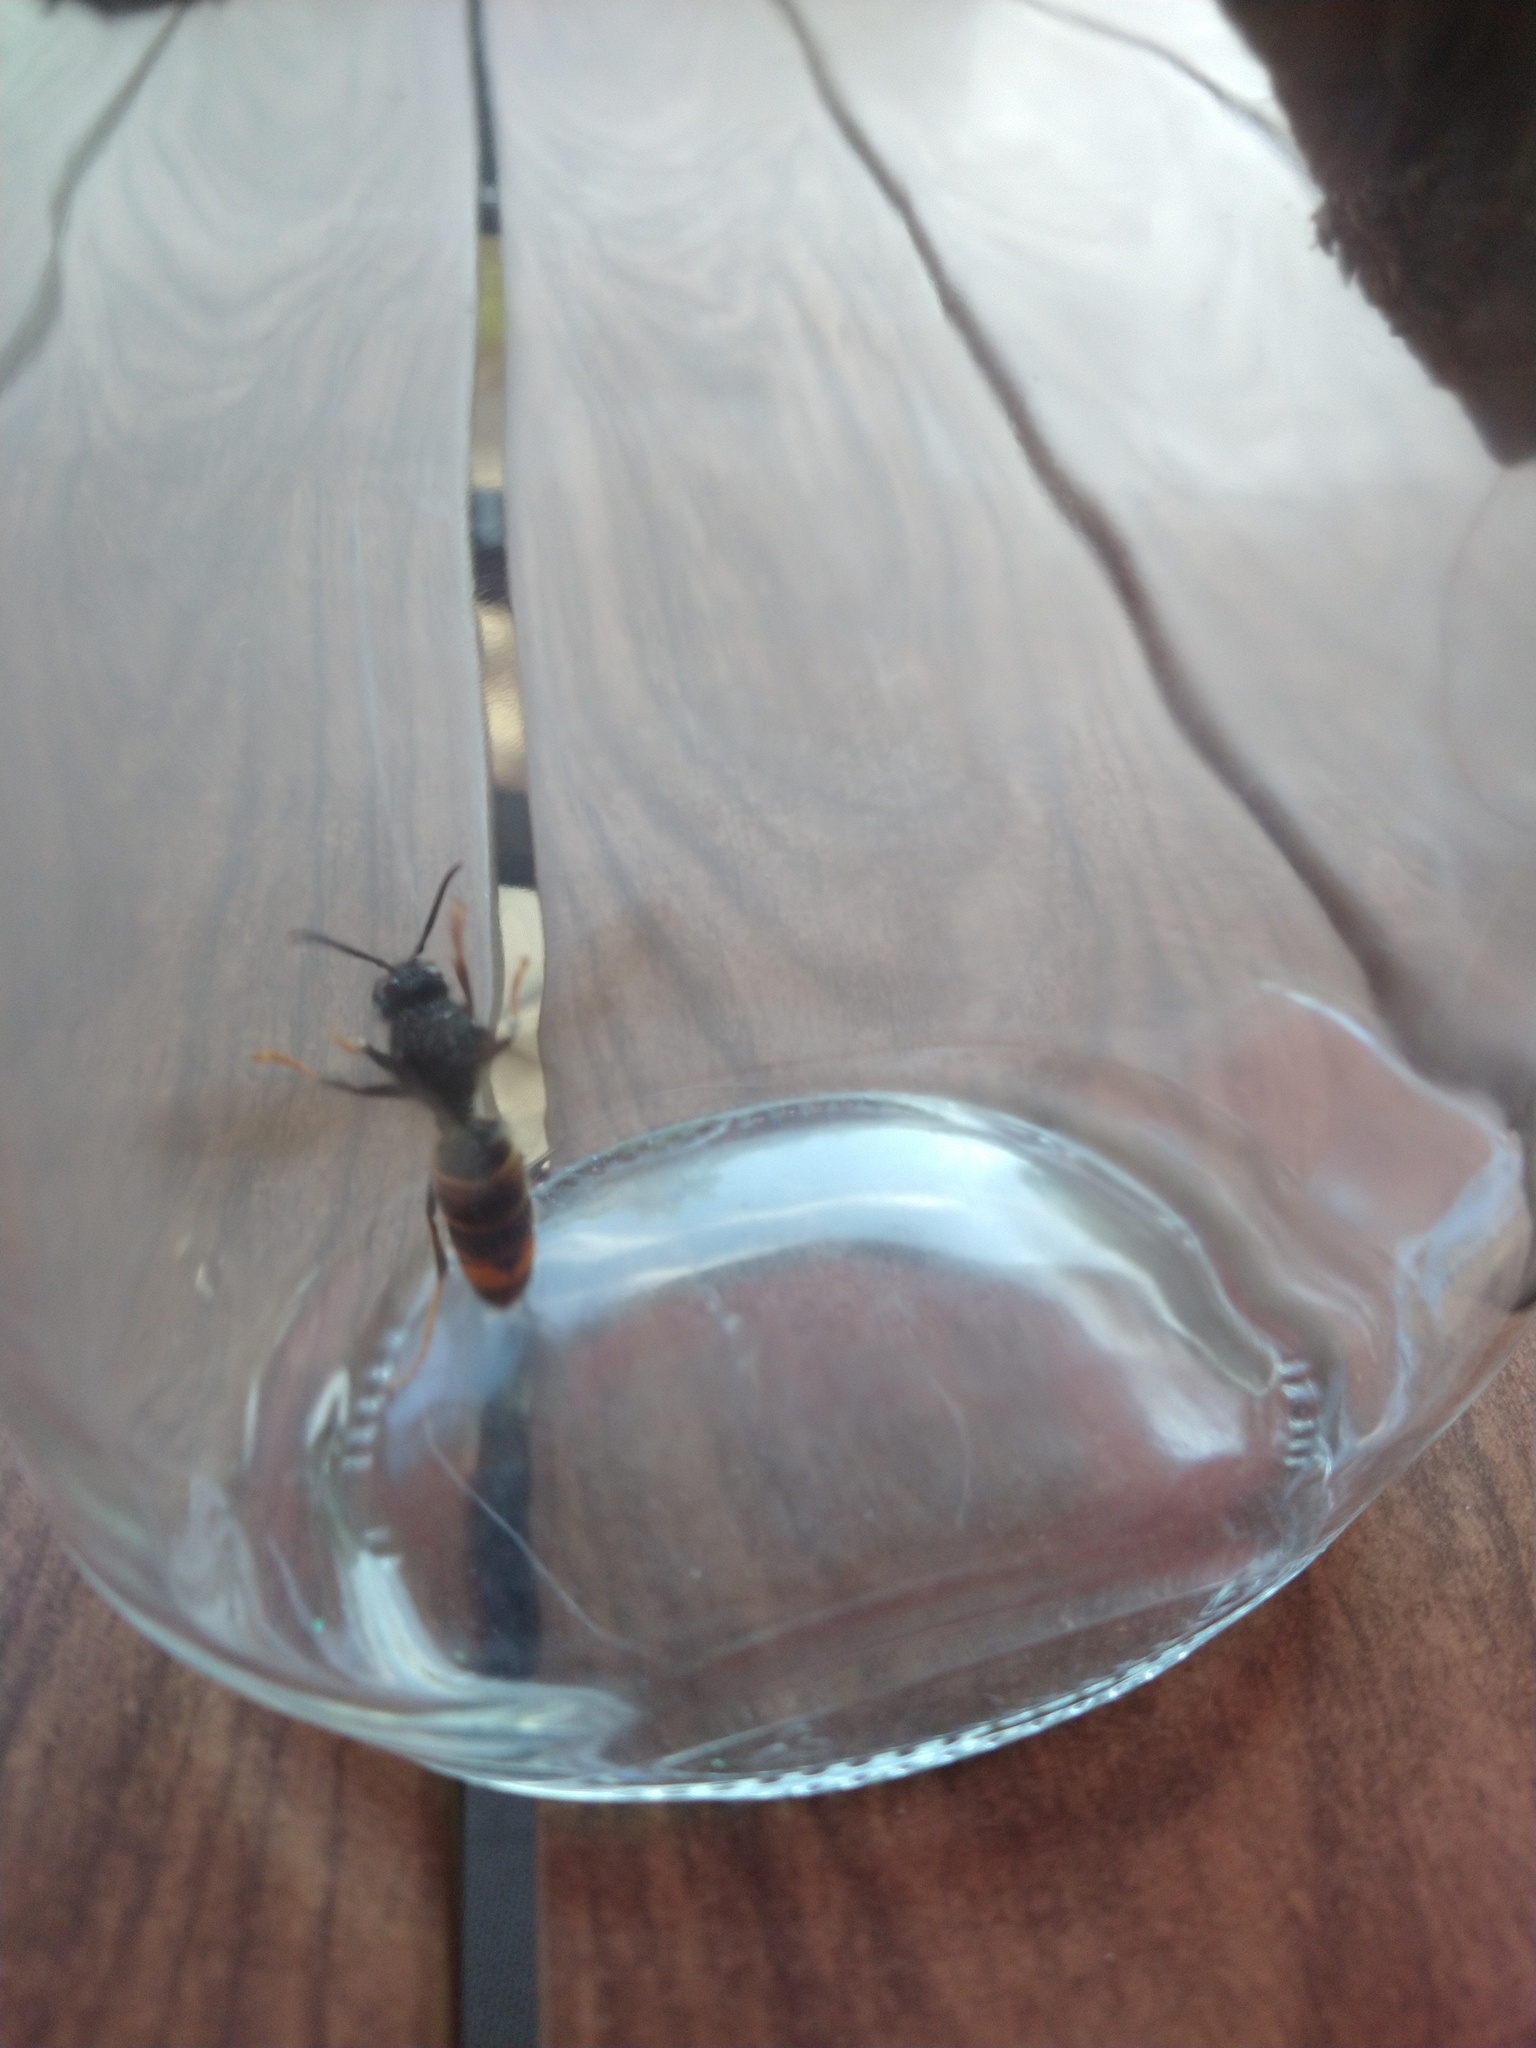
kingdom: Animalia
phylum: Arthropoda
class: Insecta
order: Hymenoptera
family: Vespidae
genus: Vespa
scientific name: Vespa velutina
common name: Asian hornet
